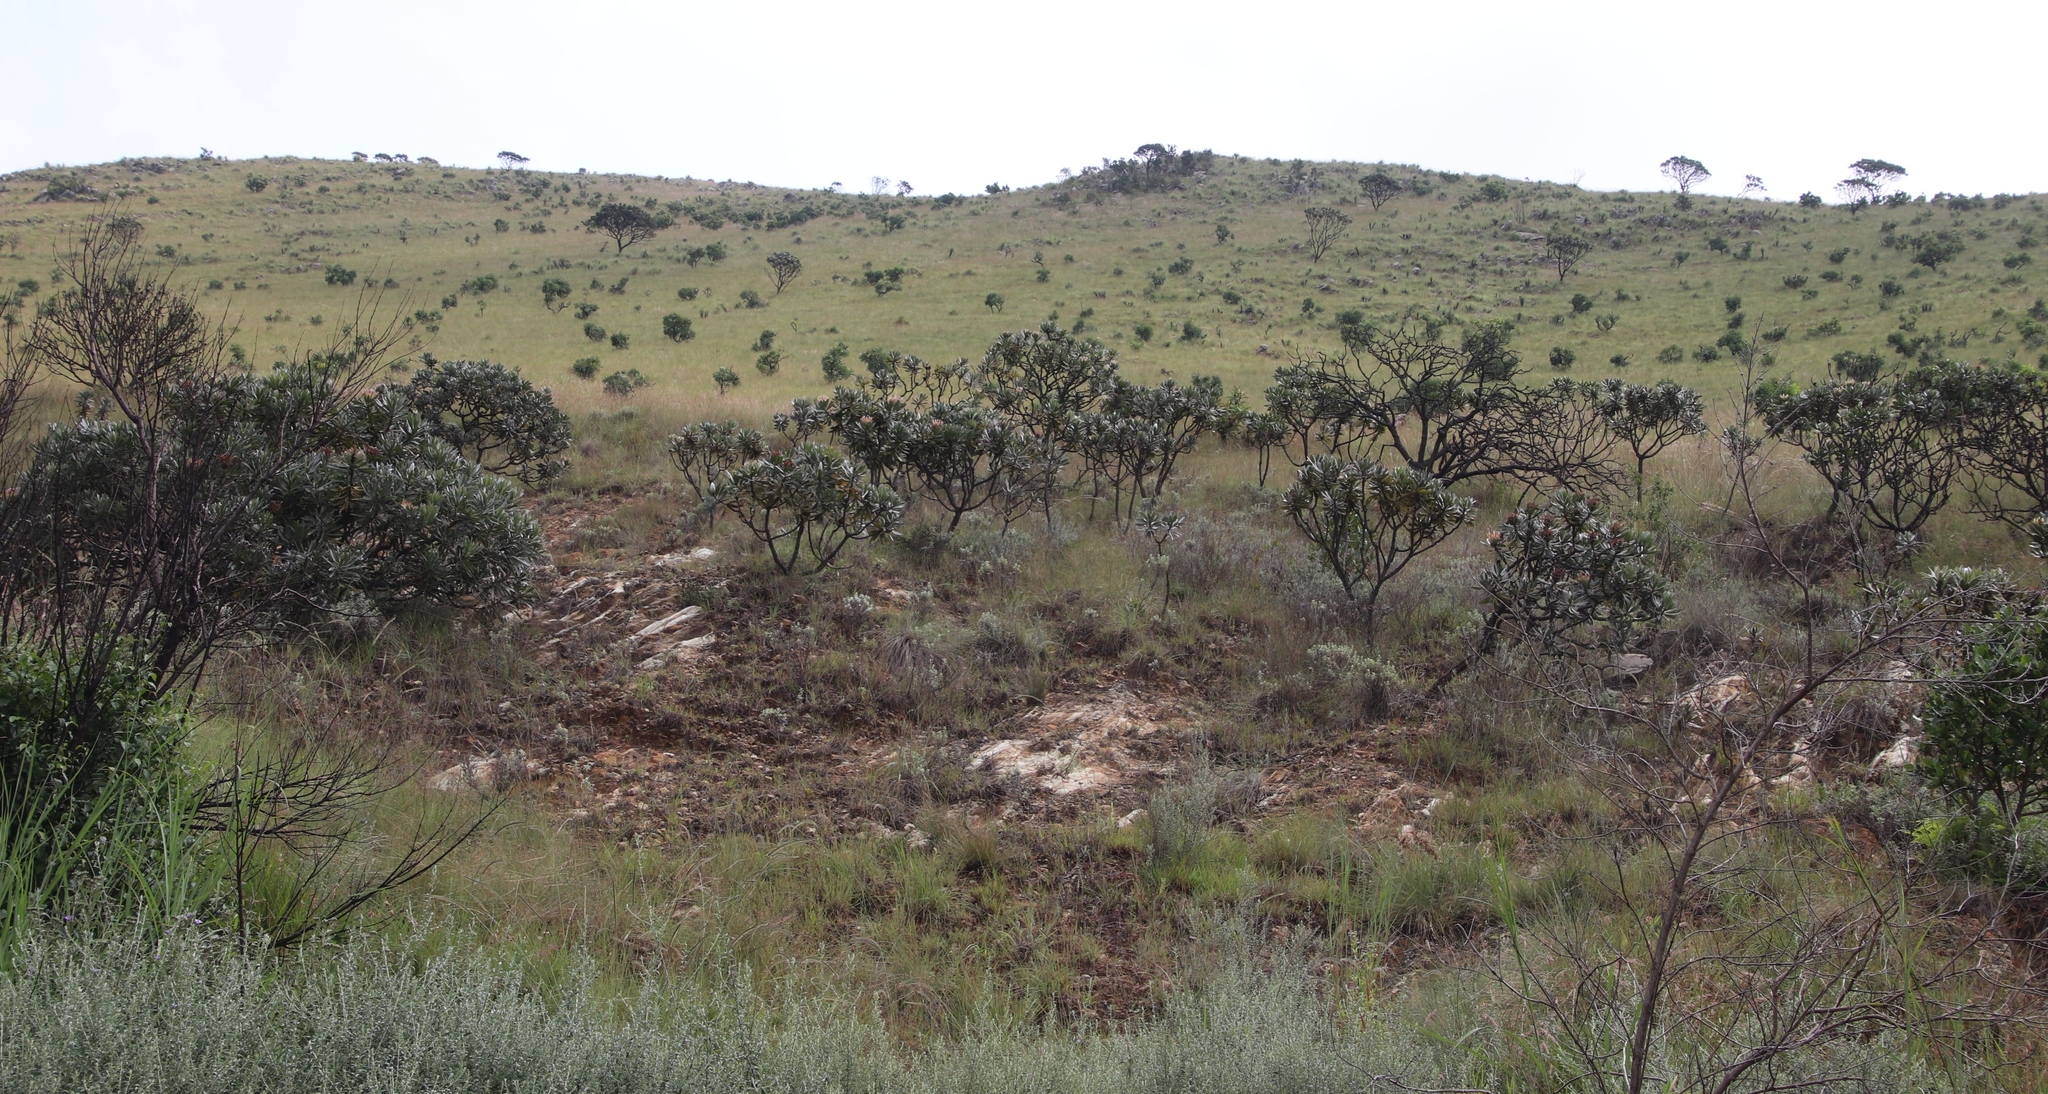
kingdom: Plantae
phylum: Tracheophyta
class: Magnoliopsida
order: Proteales
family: Proteaceae
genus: Protea
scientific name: Protea roupelliae
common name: Silver sugarbush
